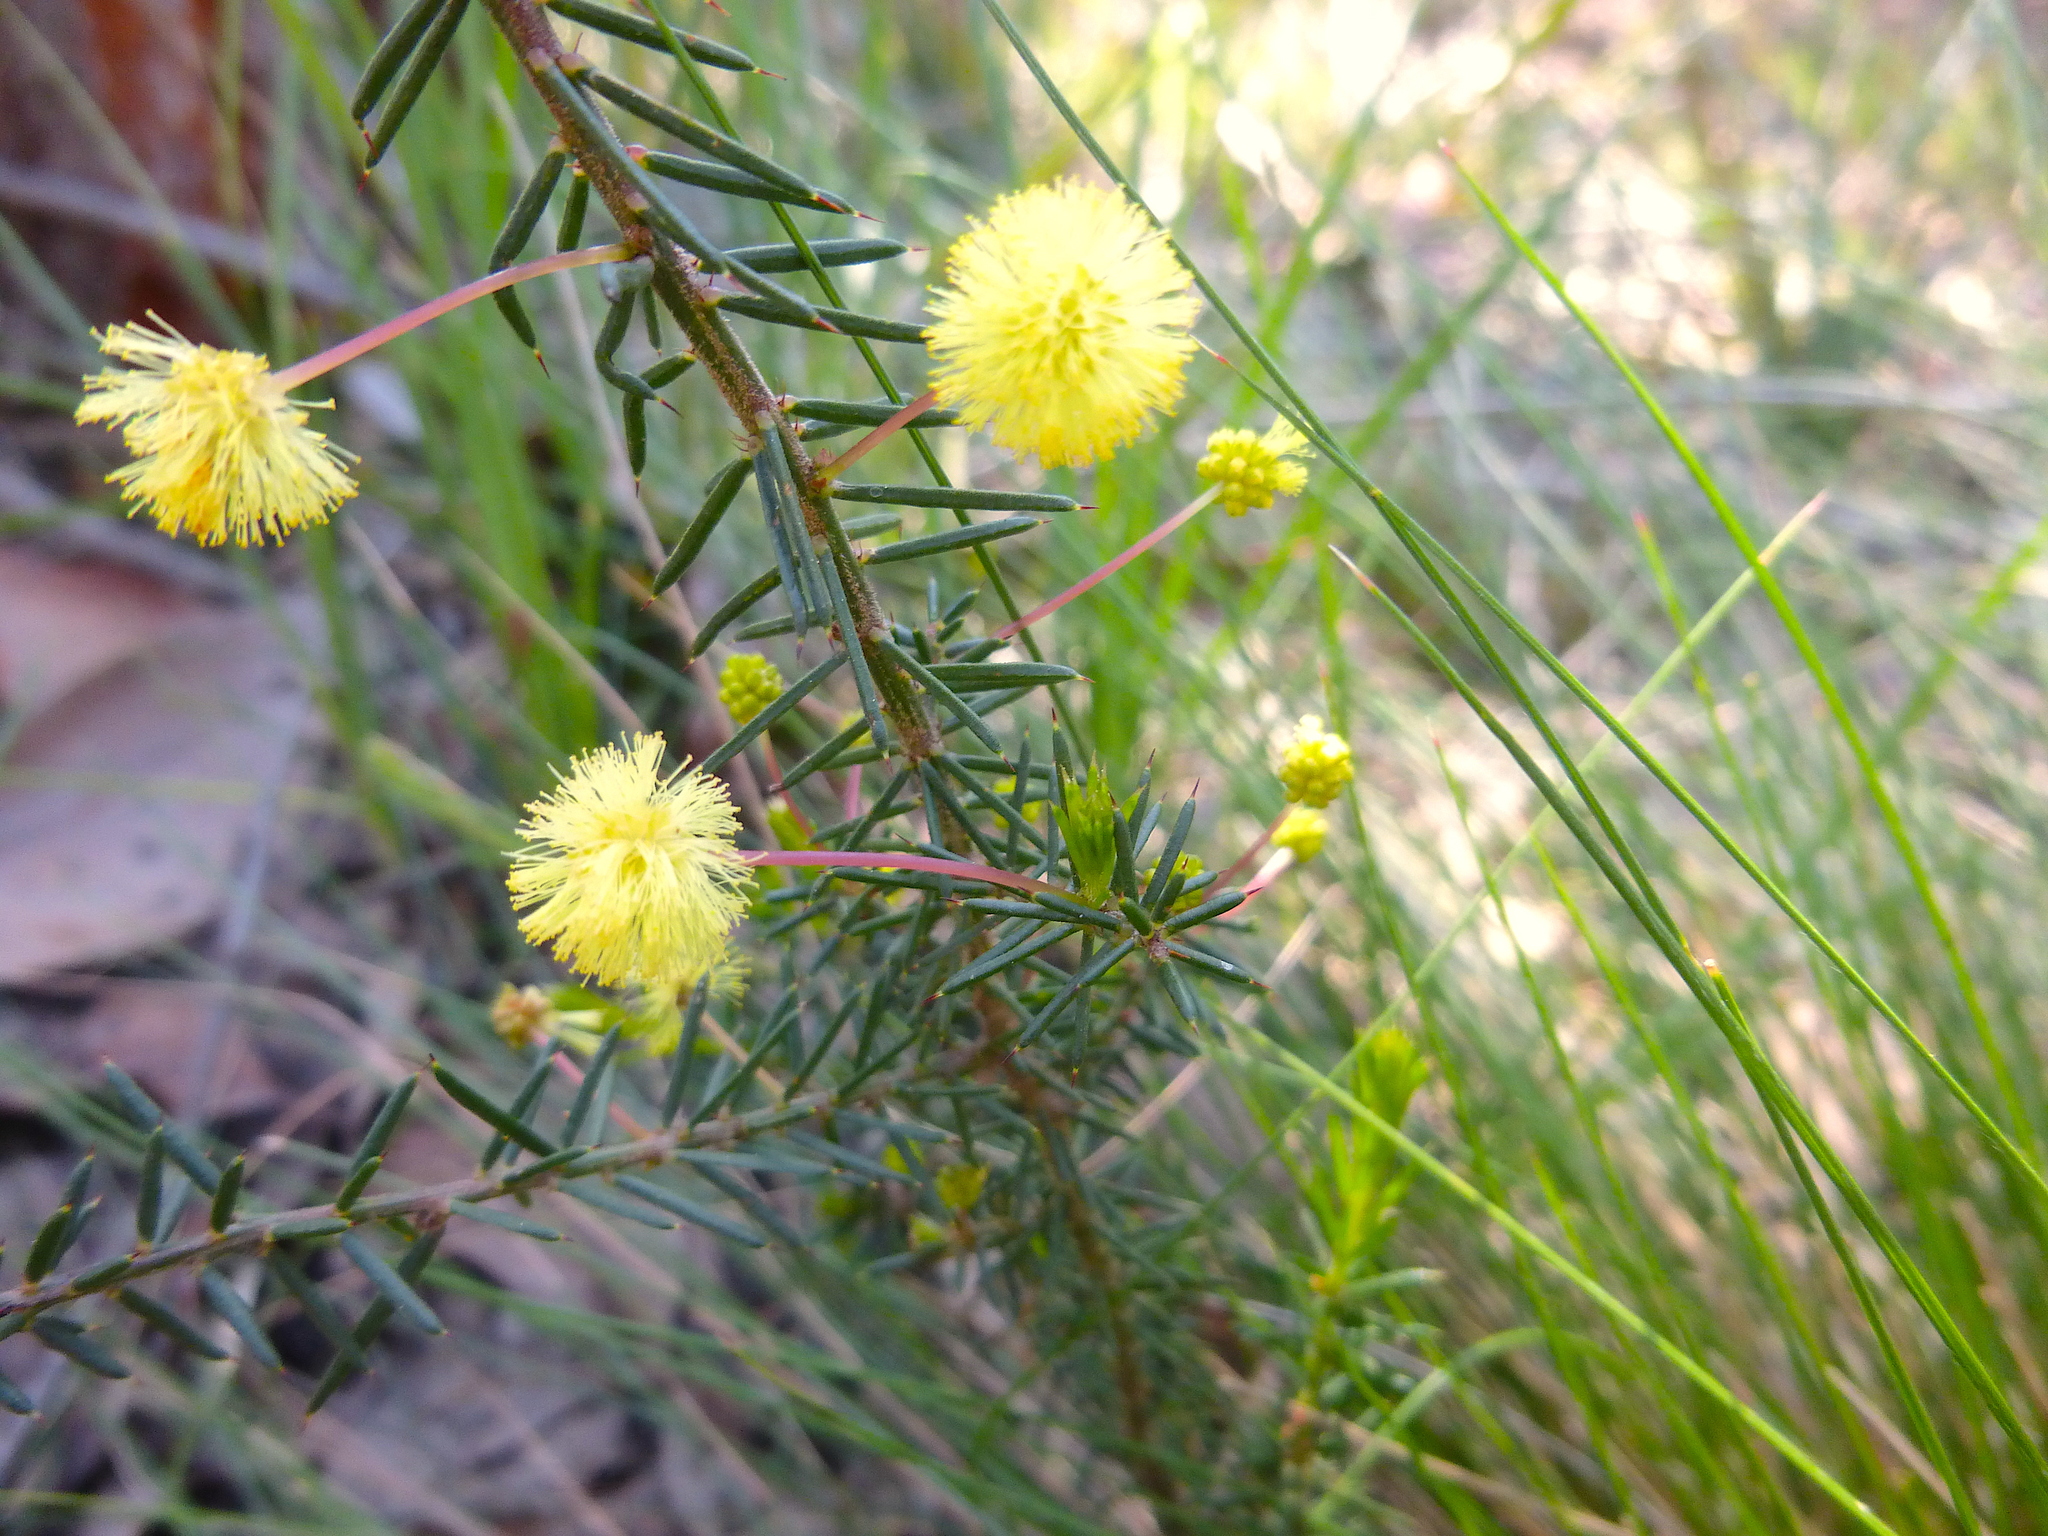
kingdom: Plantae
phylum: Tracheophyta
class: Magnoliopsida
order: Fabales
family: Fabaceae
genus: Acacia
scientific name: Acacia aculeatissima
